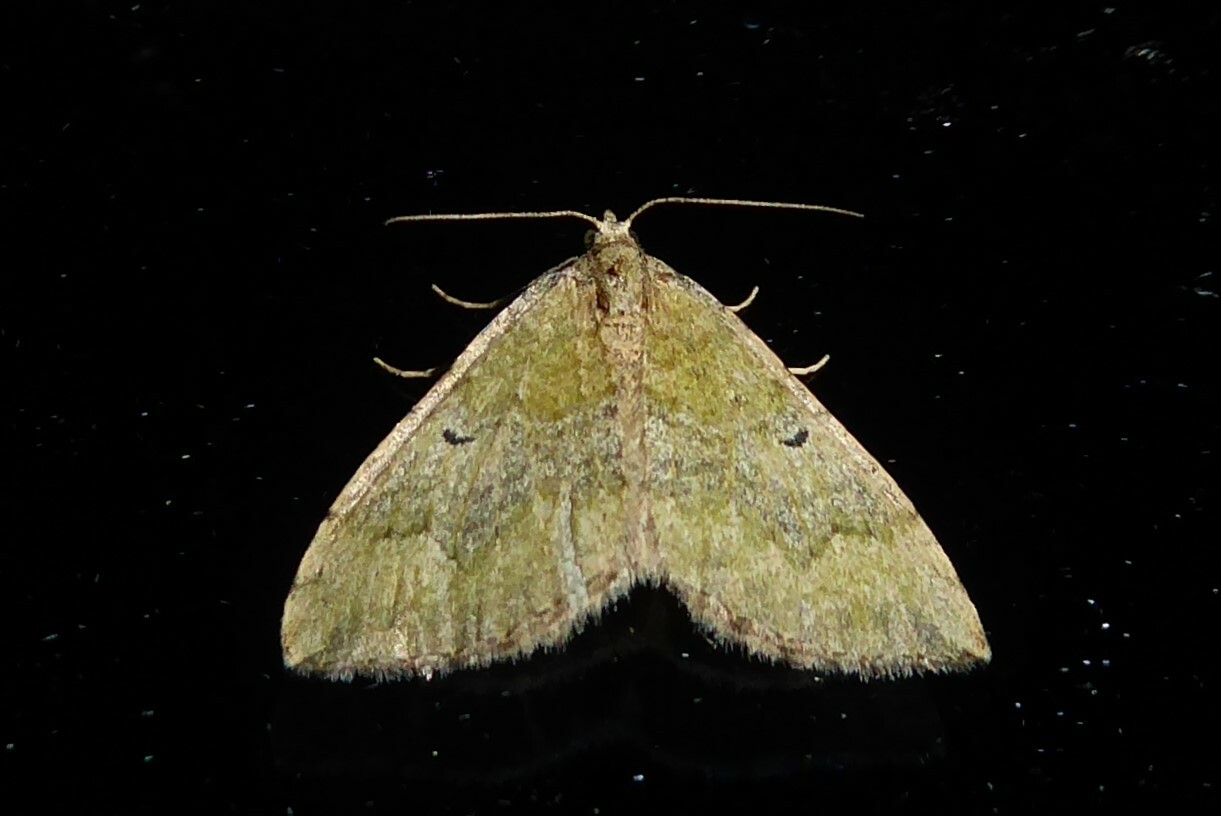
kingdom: Animalia
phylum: Arthropoda
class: Insecta
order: Lepidoptera
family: Geometridae
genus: Epyaxa
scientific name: Epyaxa rosearia
